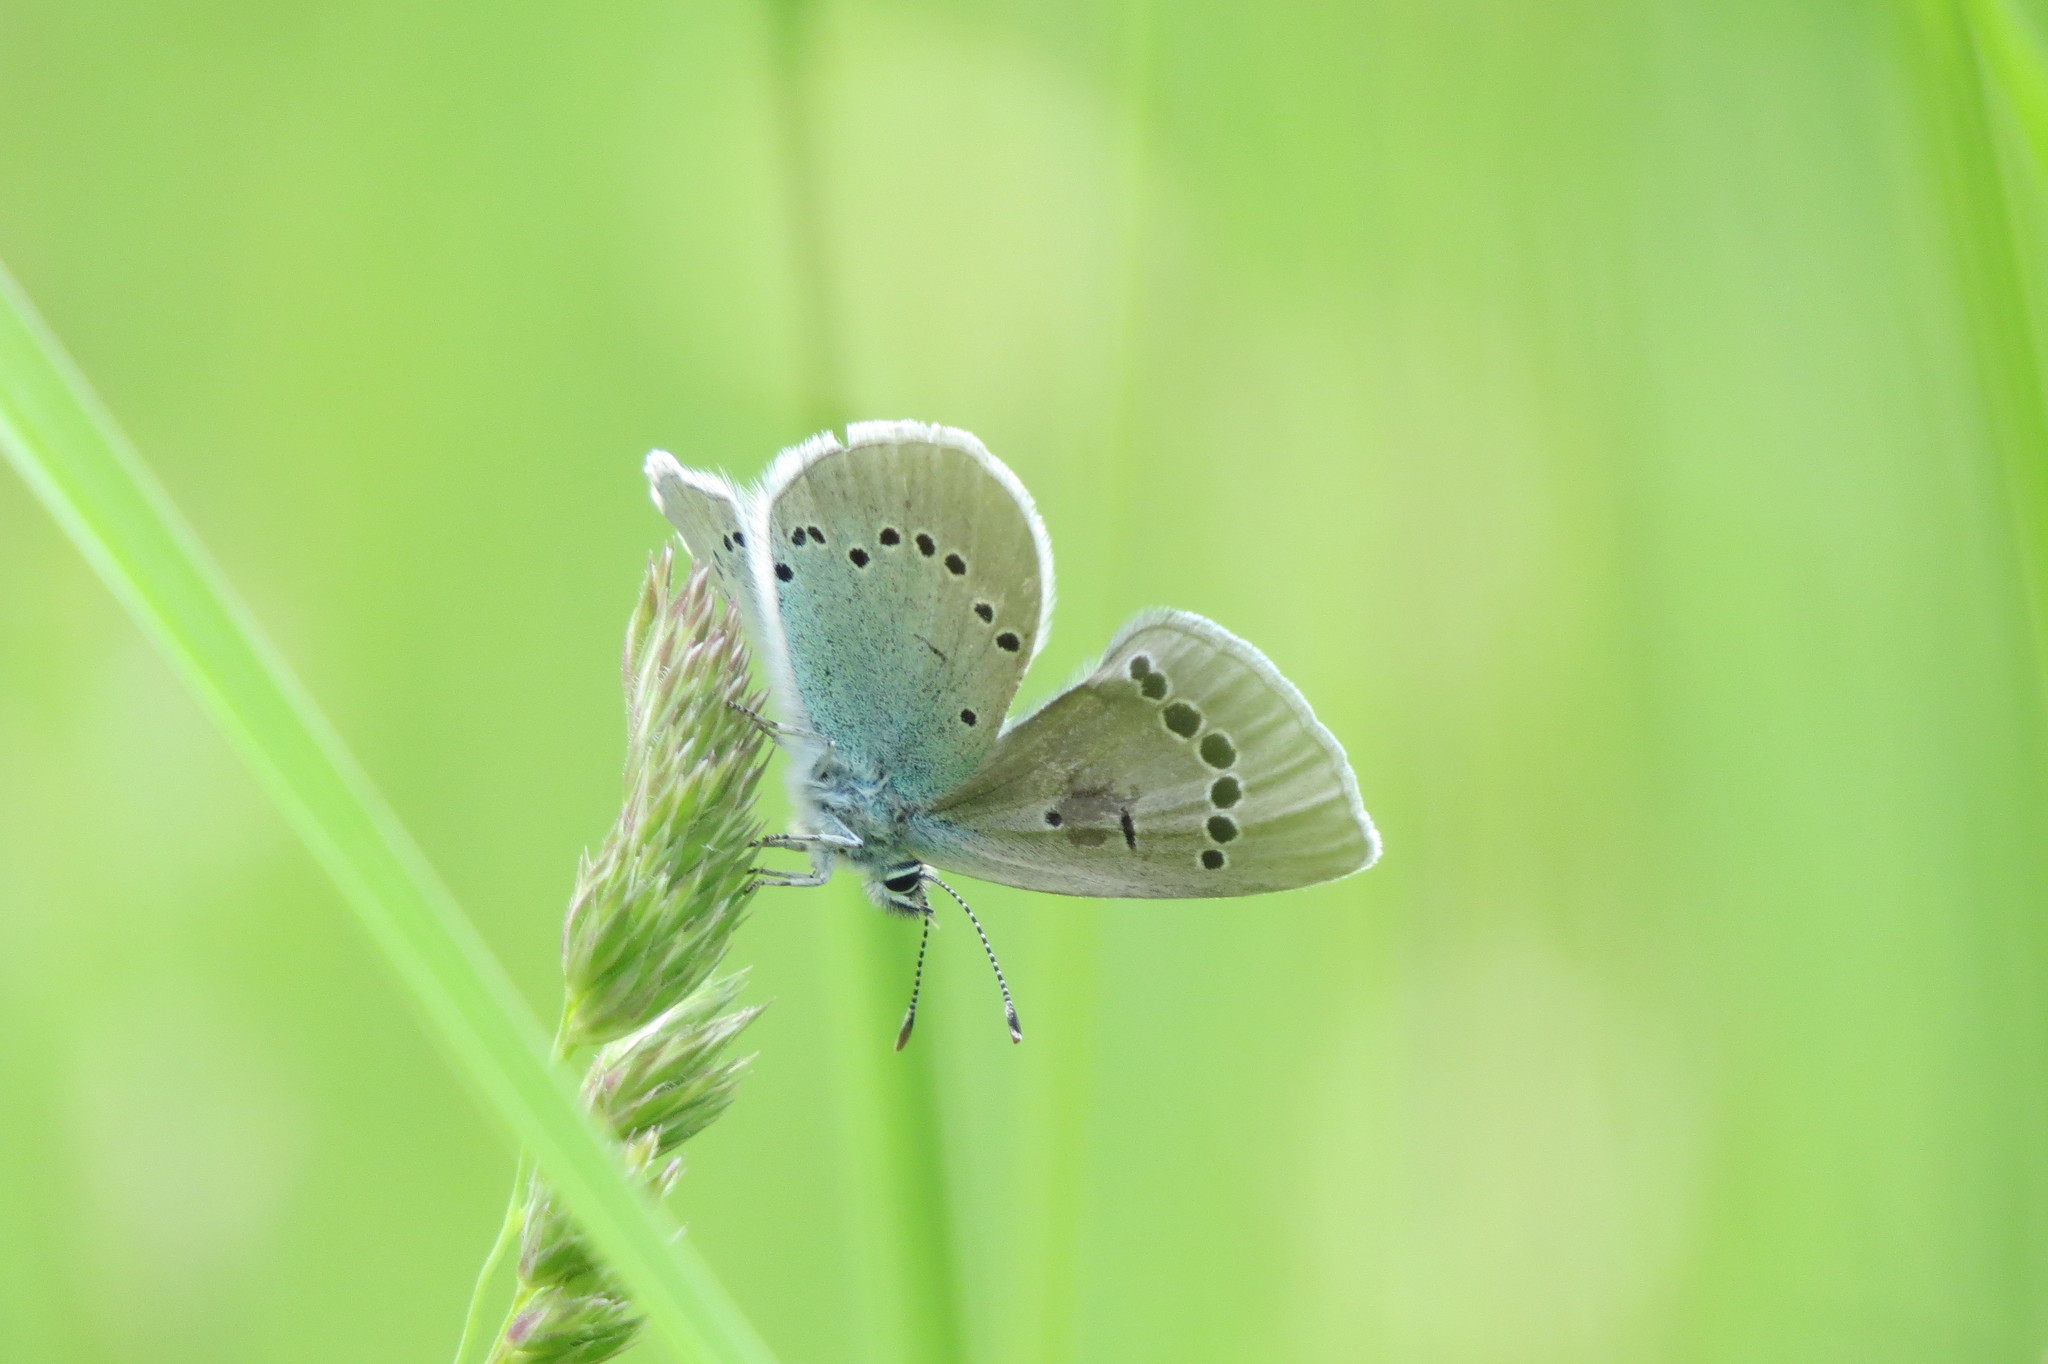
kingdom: Animalia
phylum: Arthropoda
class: Insecta
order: Lepidoptera
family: Lycaenidae
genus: Glaucopsyche
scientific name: Glaucopsyche alexis
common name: Green-underside blue
